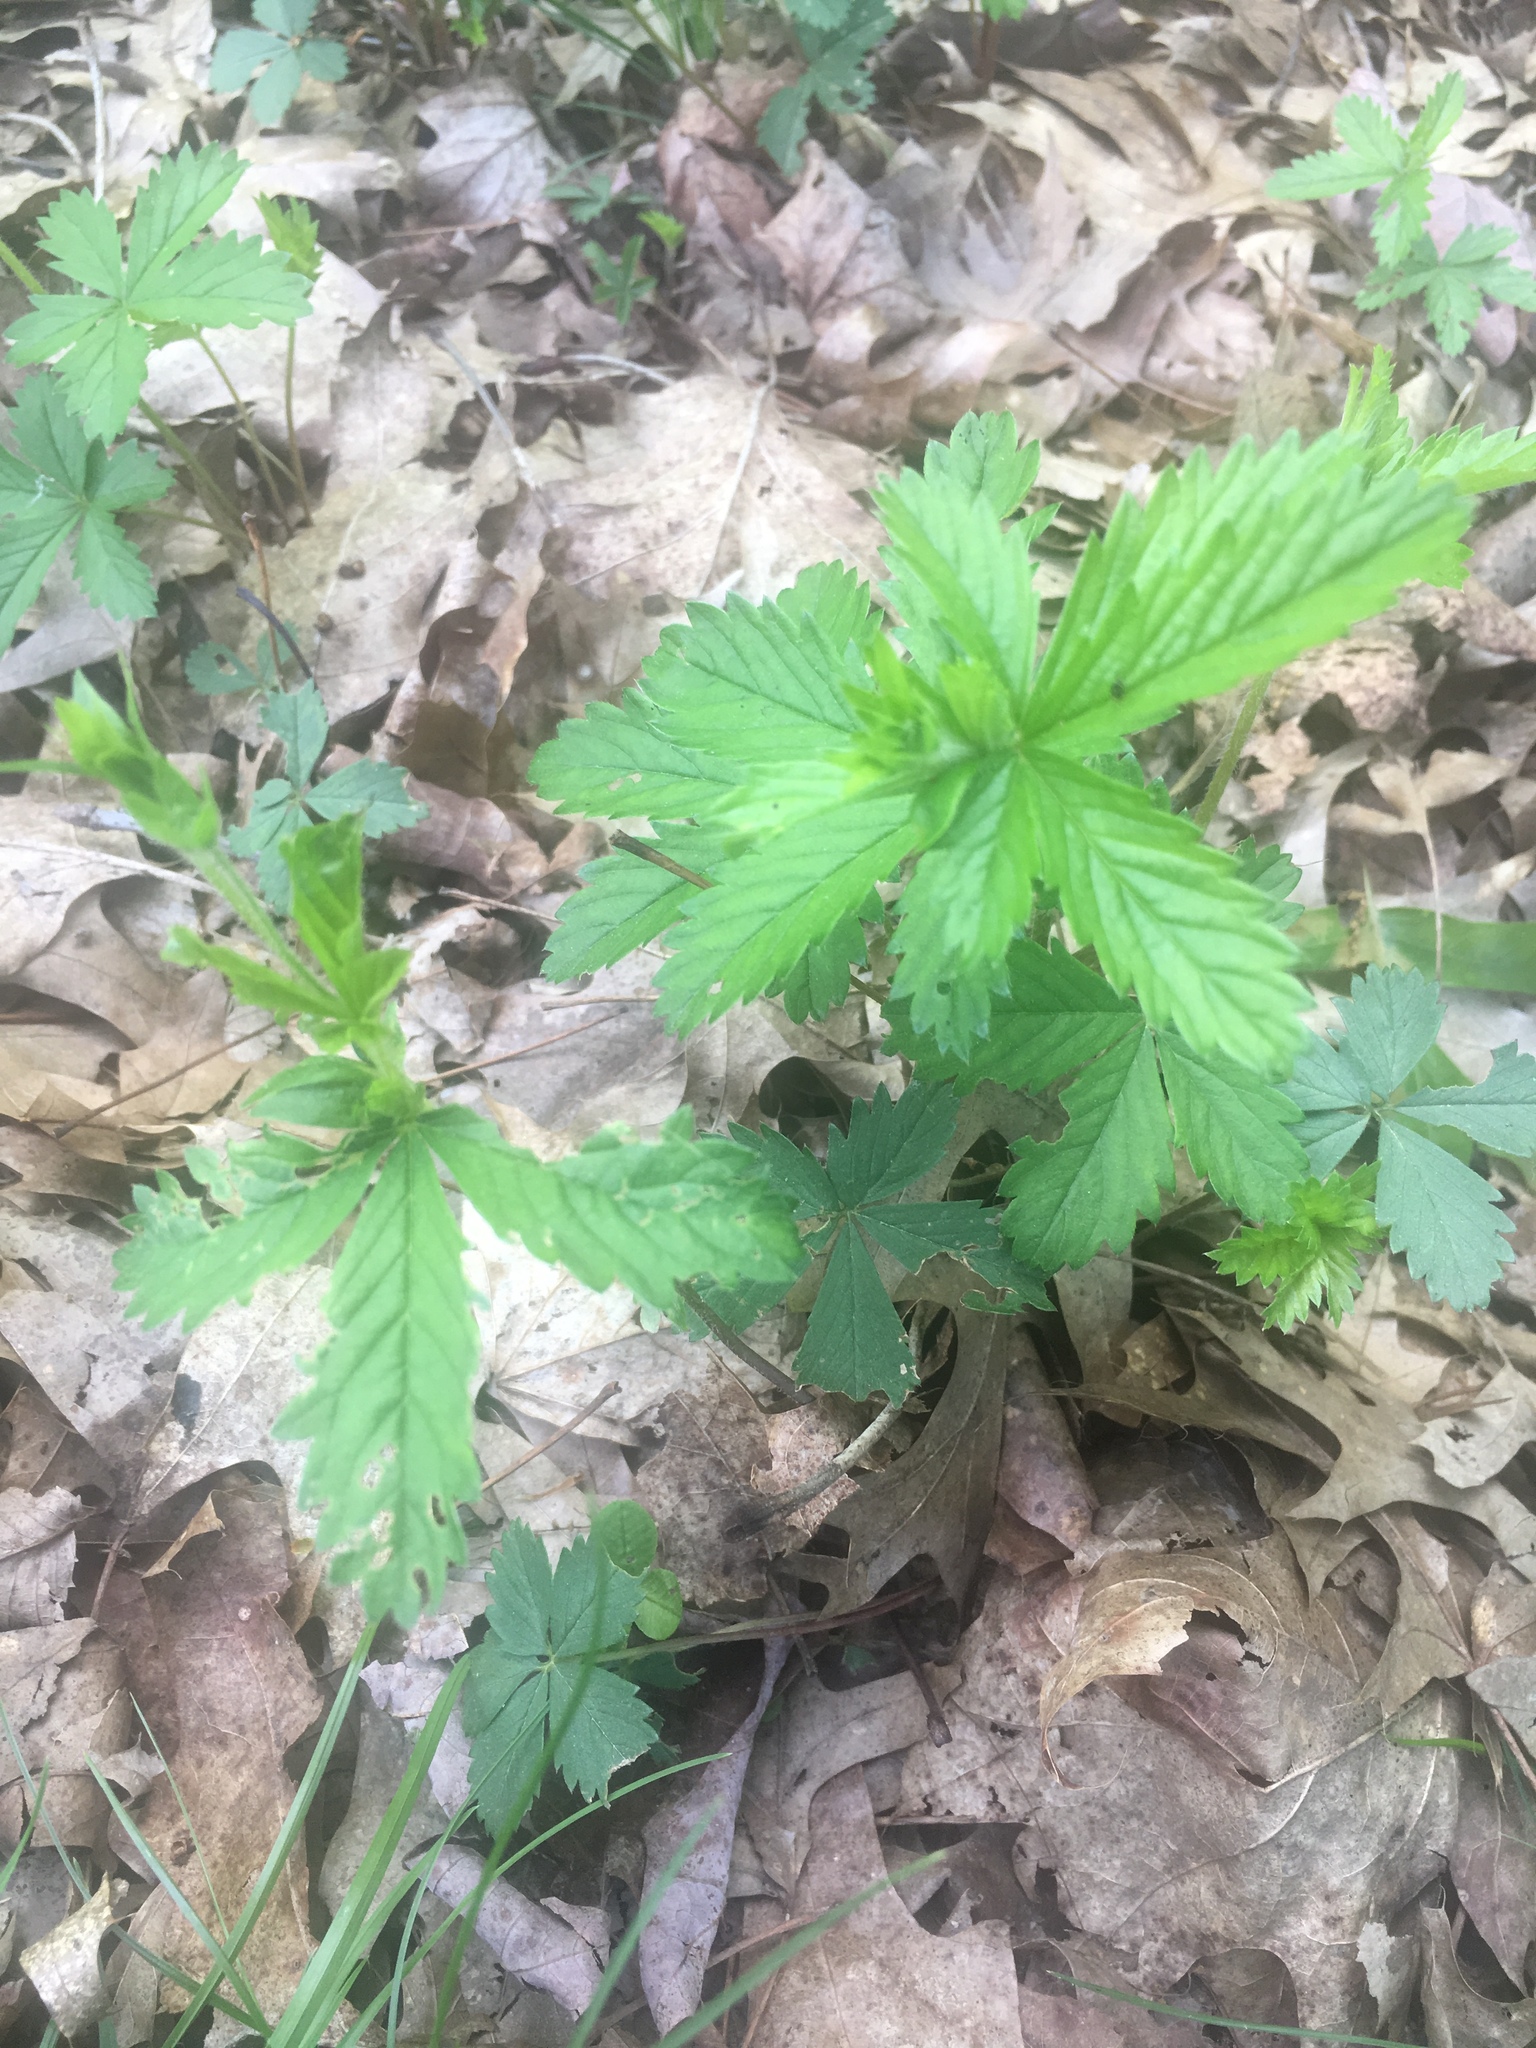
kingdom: Plantae
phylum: Tracheophyta
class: Magnoliopsida
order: Rosales
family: Rosaceae
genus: Potentilla
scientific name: Potentilla norvegica
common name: Ternate-leaved cinquefoil
